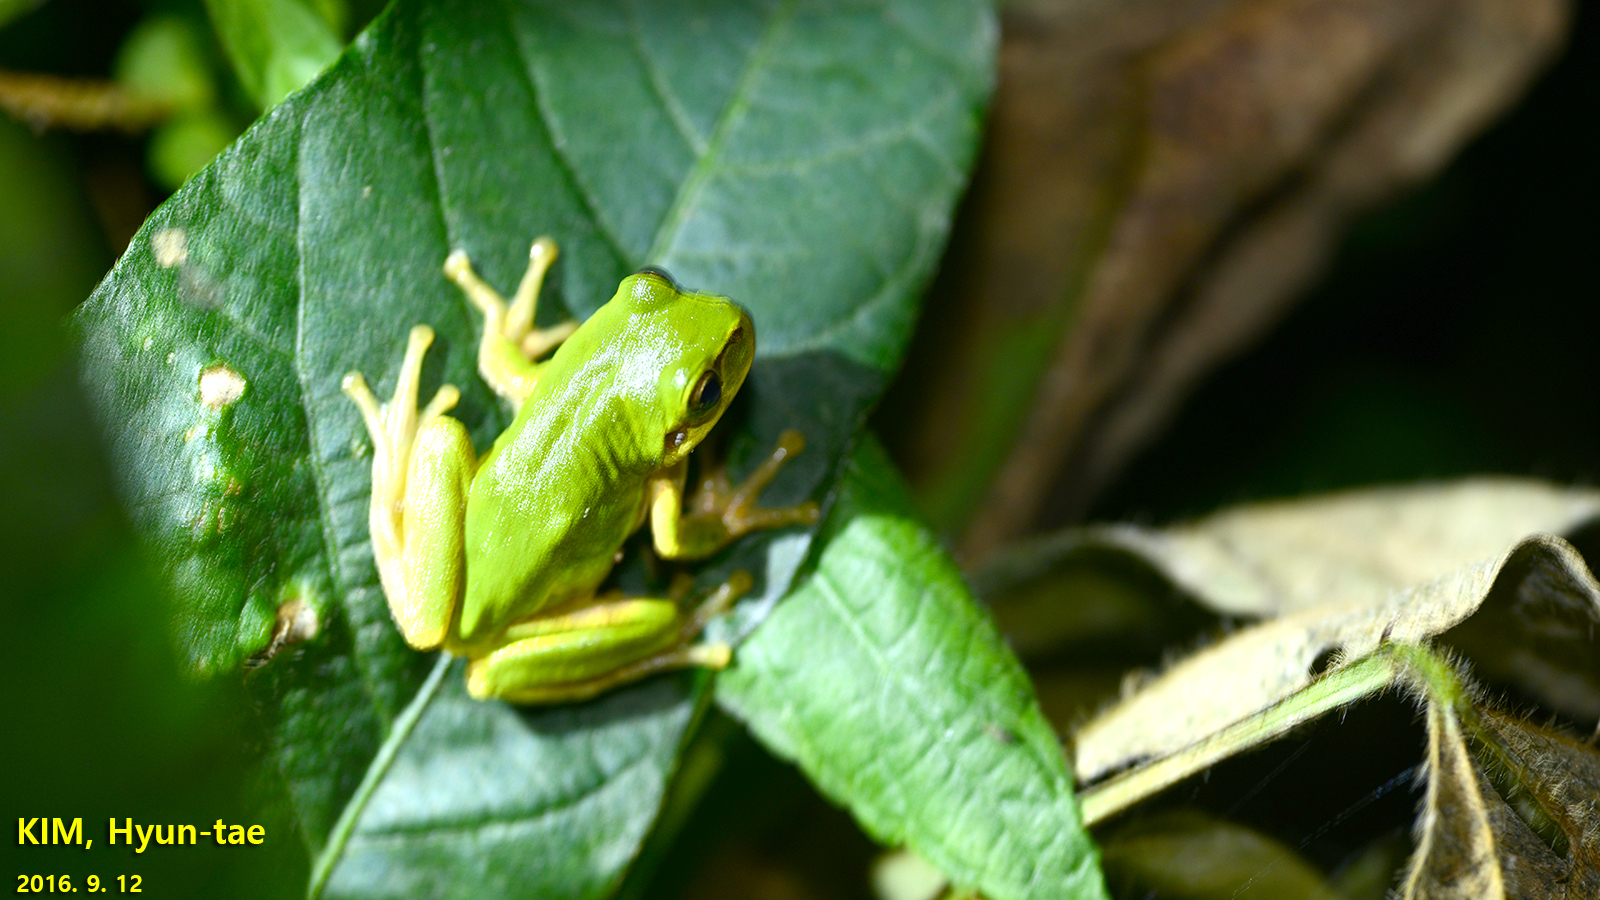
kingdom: Animalia
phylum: Chordata
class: Amphibia
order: Anura
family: Hylidae
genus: Dryophytes
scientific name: Dryophytes japonicus
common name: Japanese treefrog
